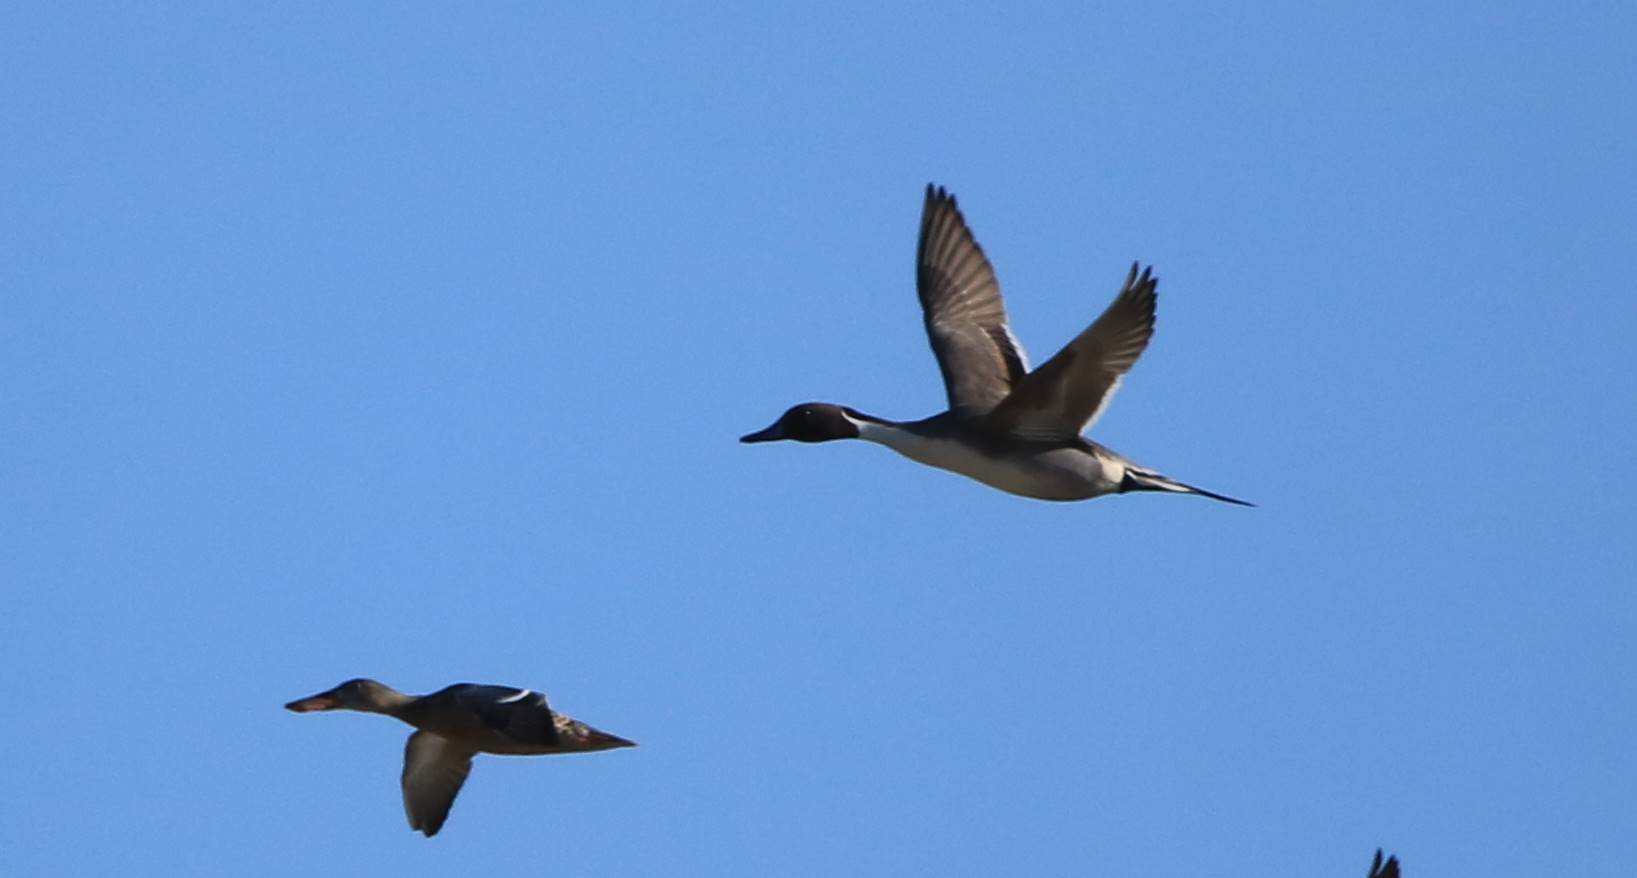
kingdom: Animalia
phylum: Chordata
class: Aves
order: Anseriformes
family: Anatidae
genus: Anas
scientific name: Anas acuta
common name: Northern pintail
